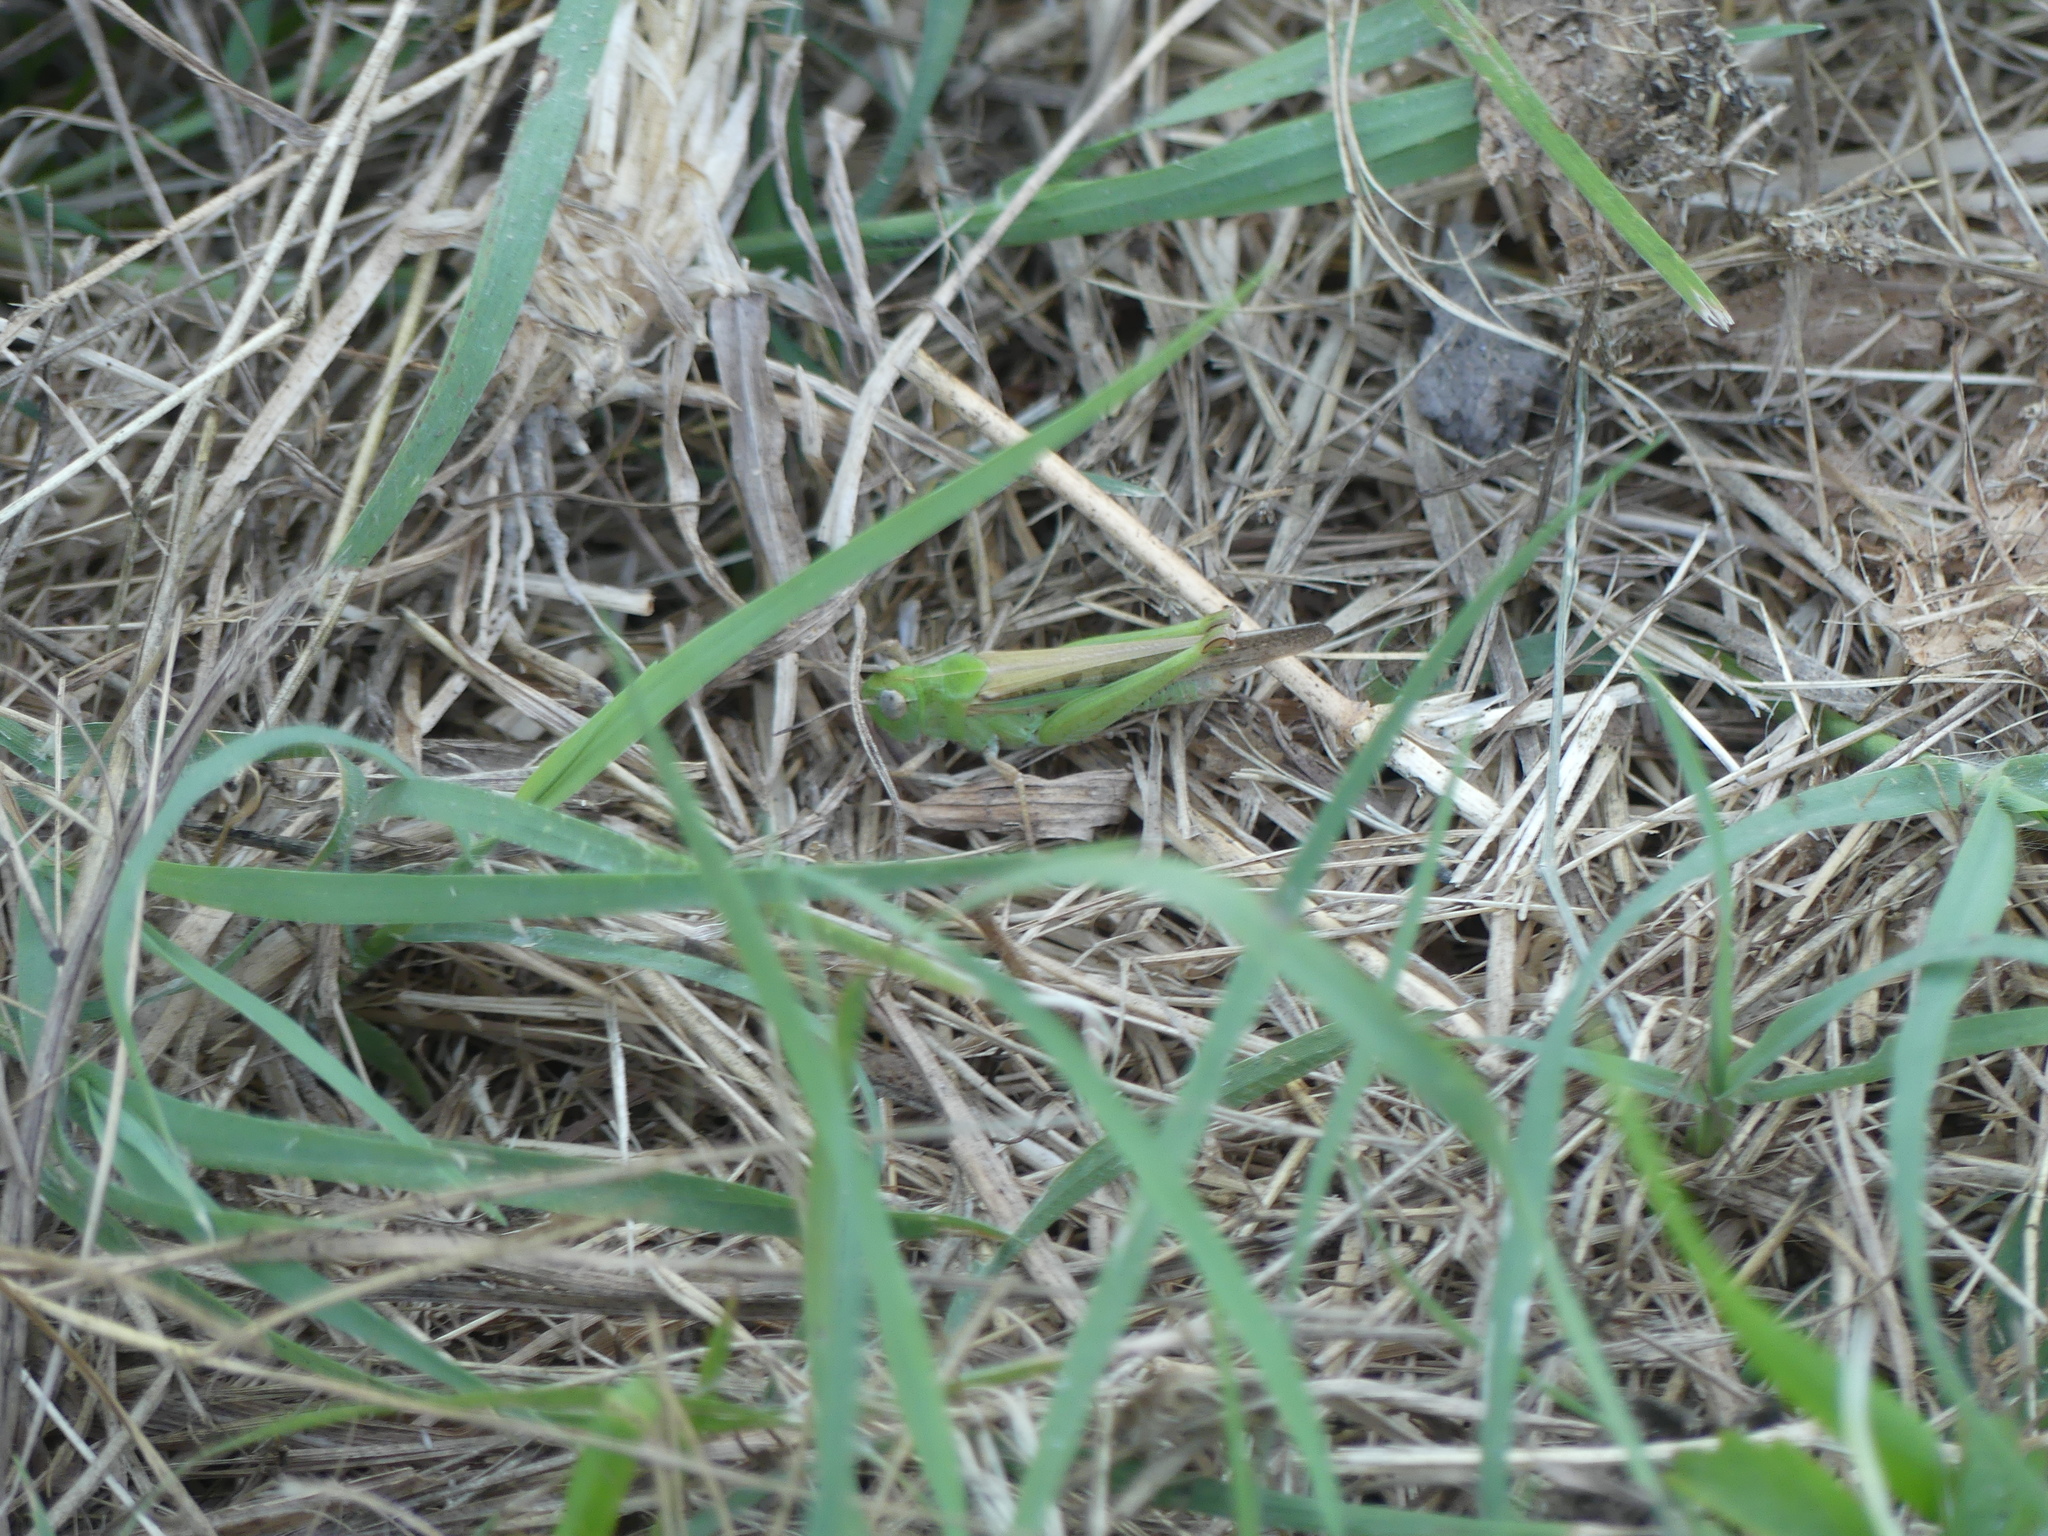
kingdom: Animalia
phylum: Arthropoda
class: Insecta
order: Orthoptera
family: Acrididae
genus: Aiolopus
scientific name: Aiolopus puissanti
